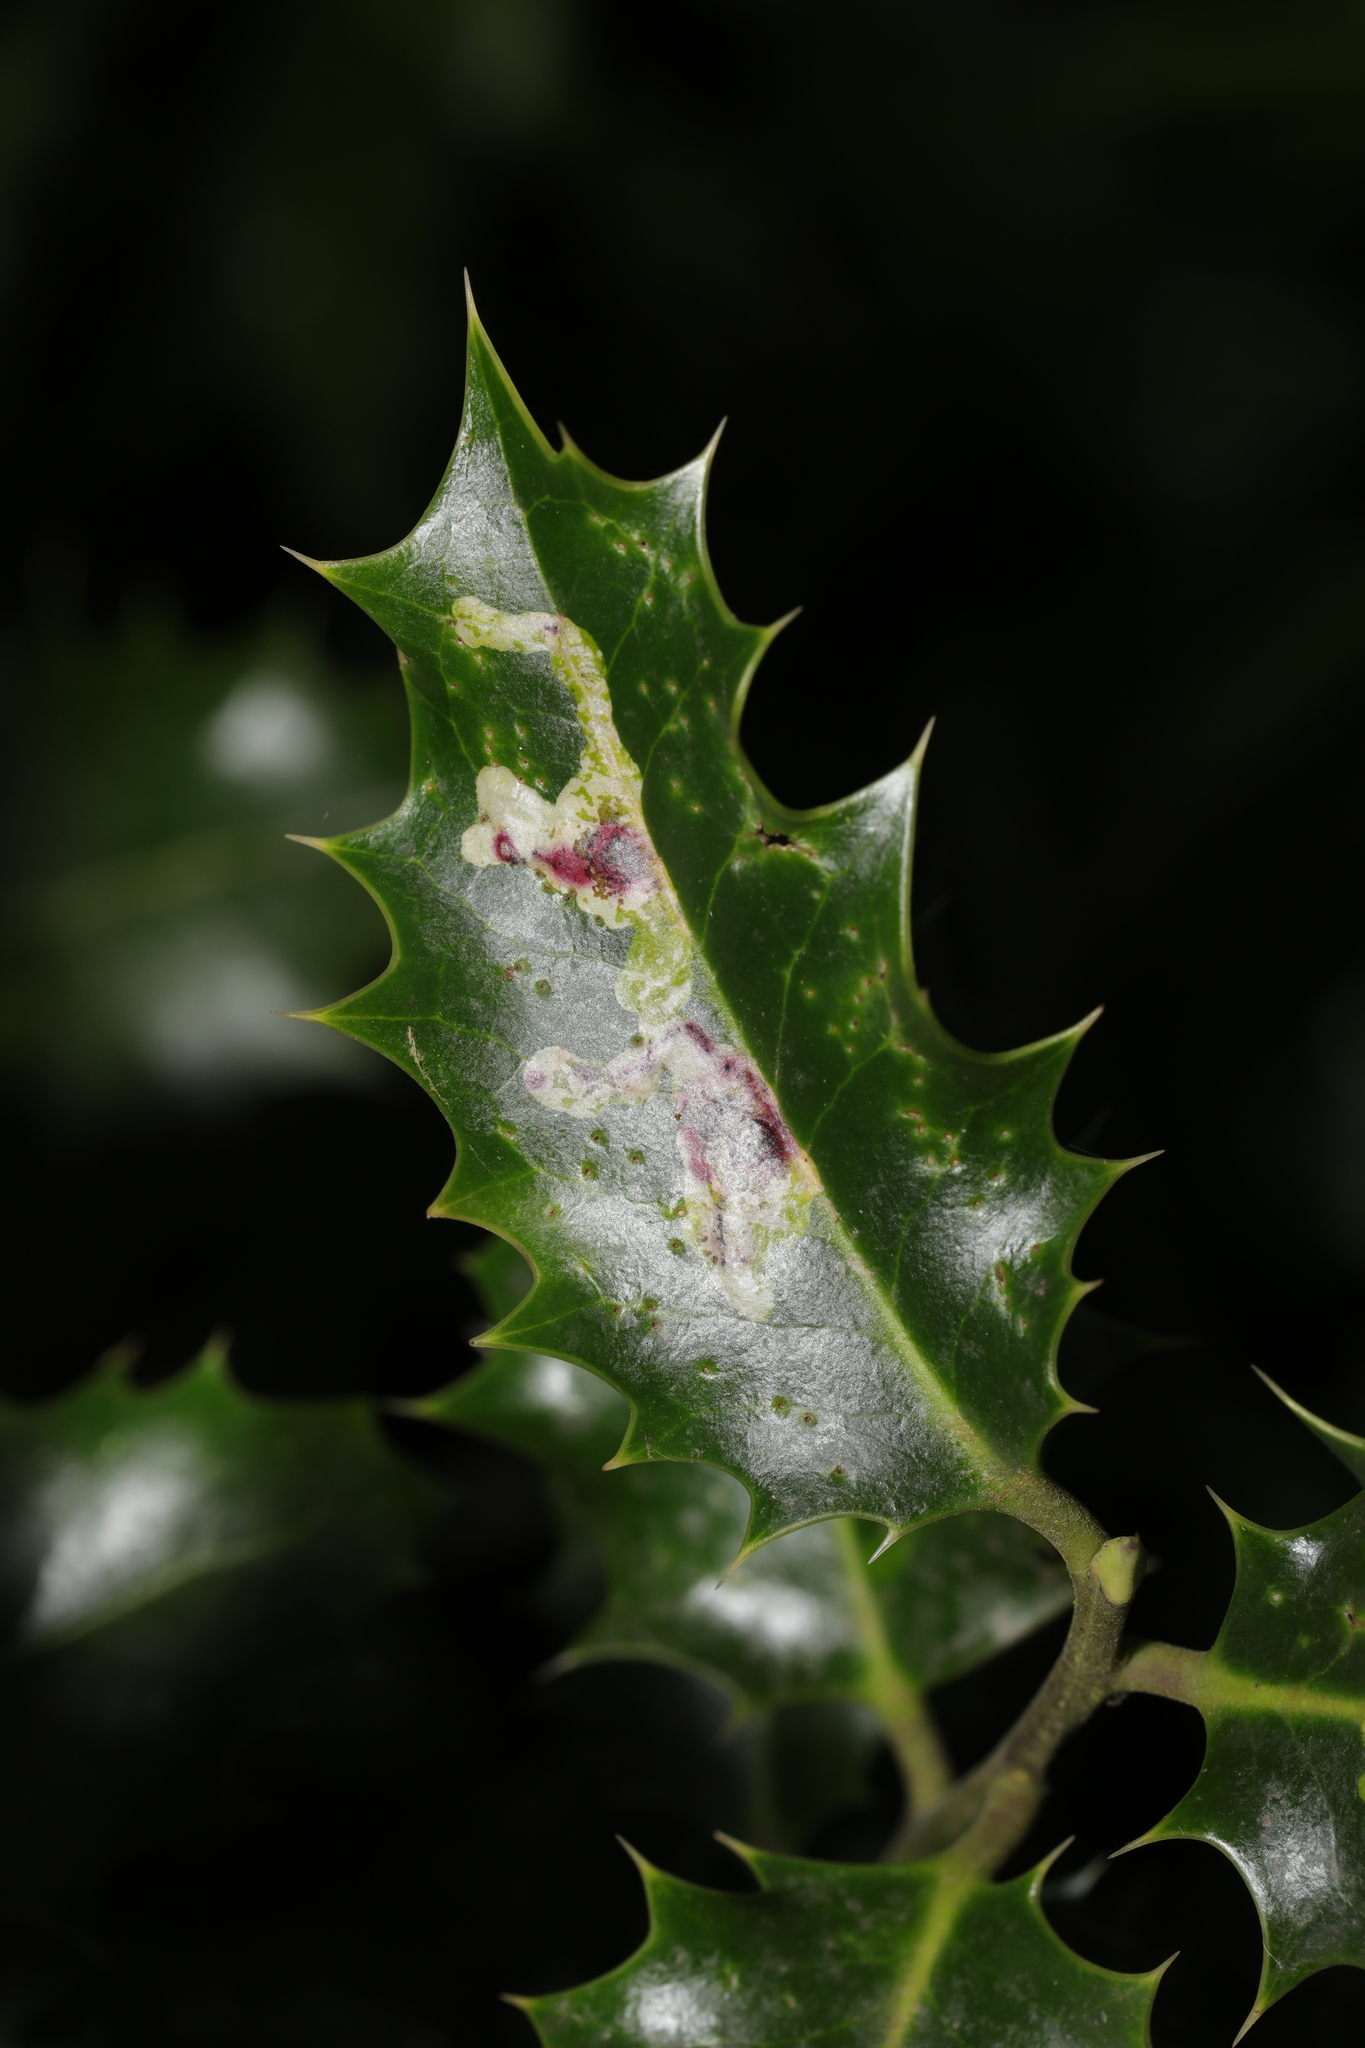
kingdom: Animalia
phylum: Arthropoda
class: Insecta
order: Diptera
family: Agromyzidae
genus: Phytomyza
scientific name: Phytomyza ilicis
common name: Holly leafminer
